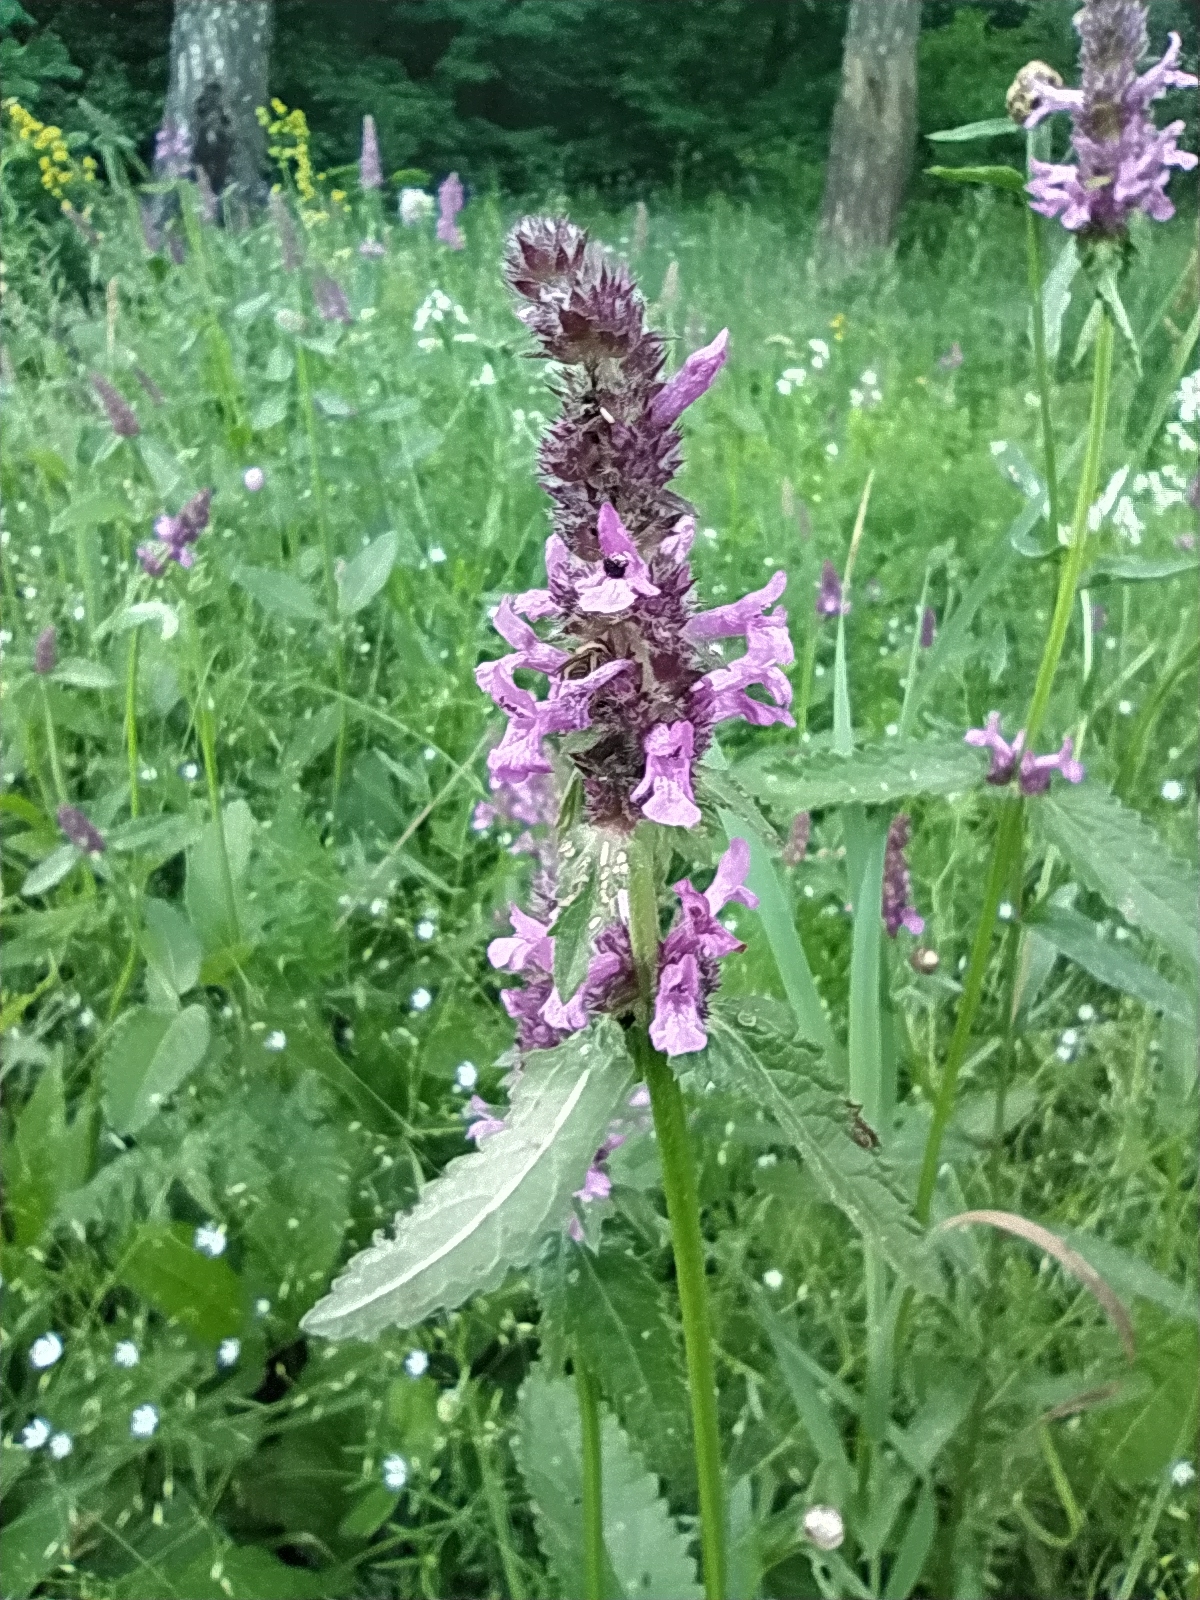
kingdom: Plantae
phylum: Tracheophyta
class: Magnoliopsida
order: Lamiales
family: Lamiaceae
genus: Betonica
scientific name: Betonica officinalis
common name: Bishop's-wort
